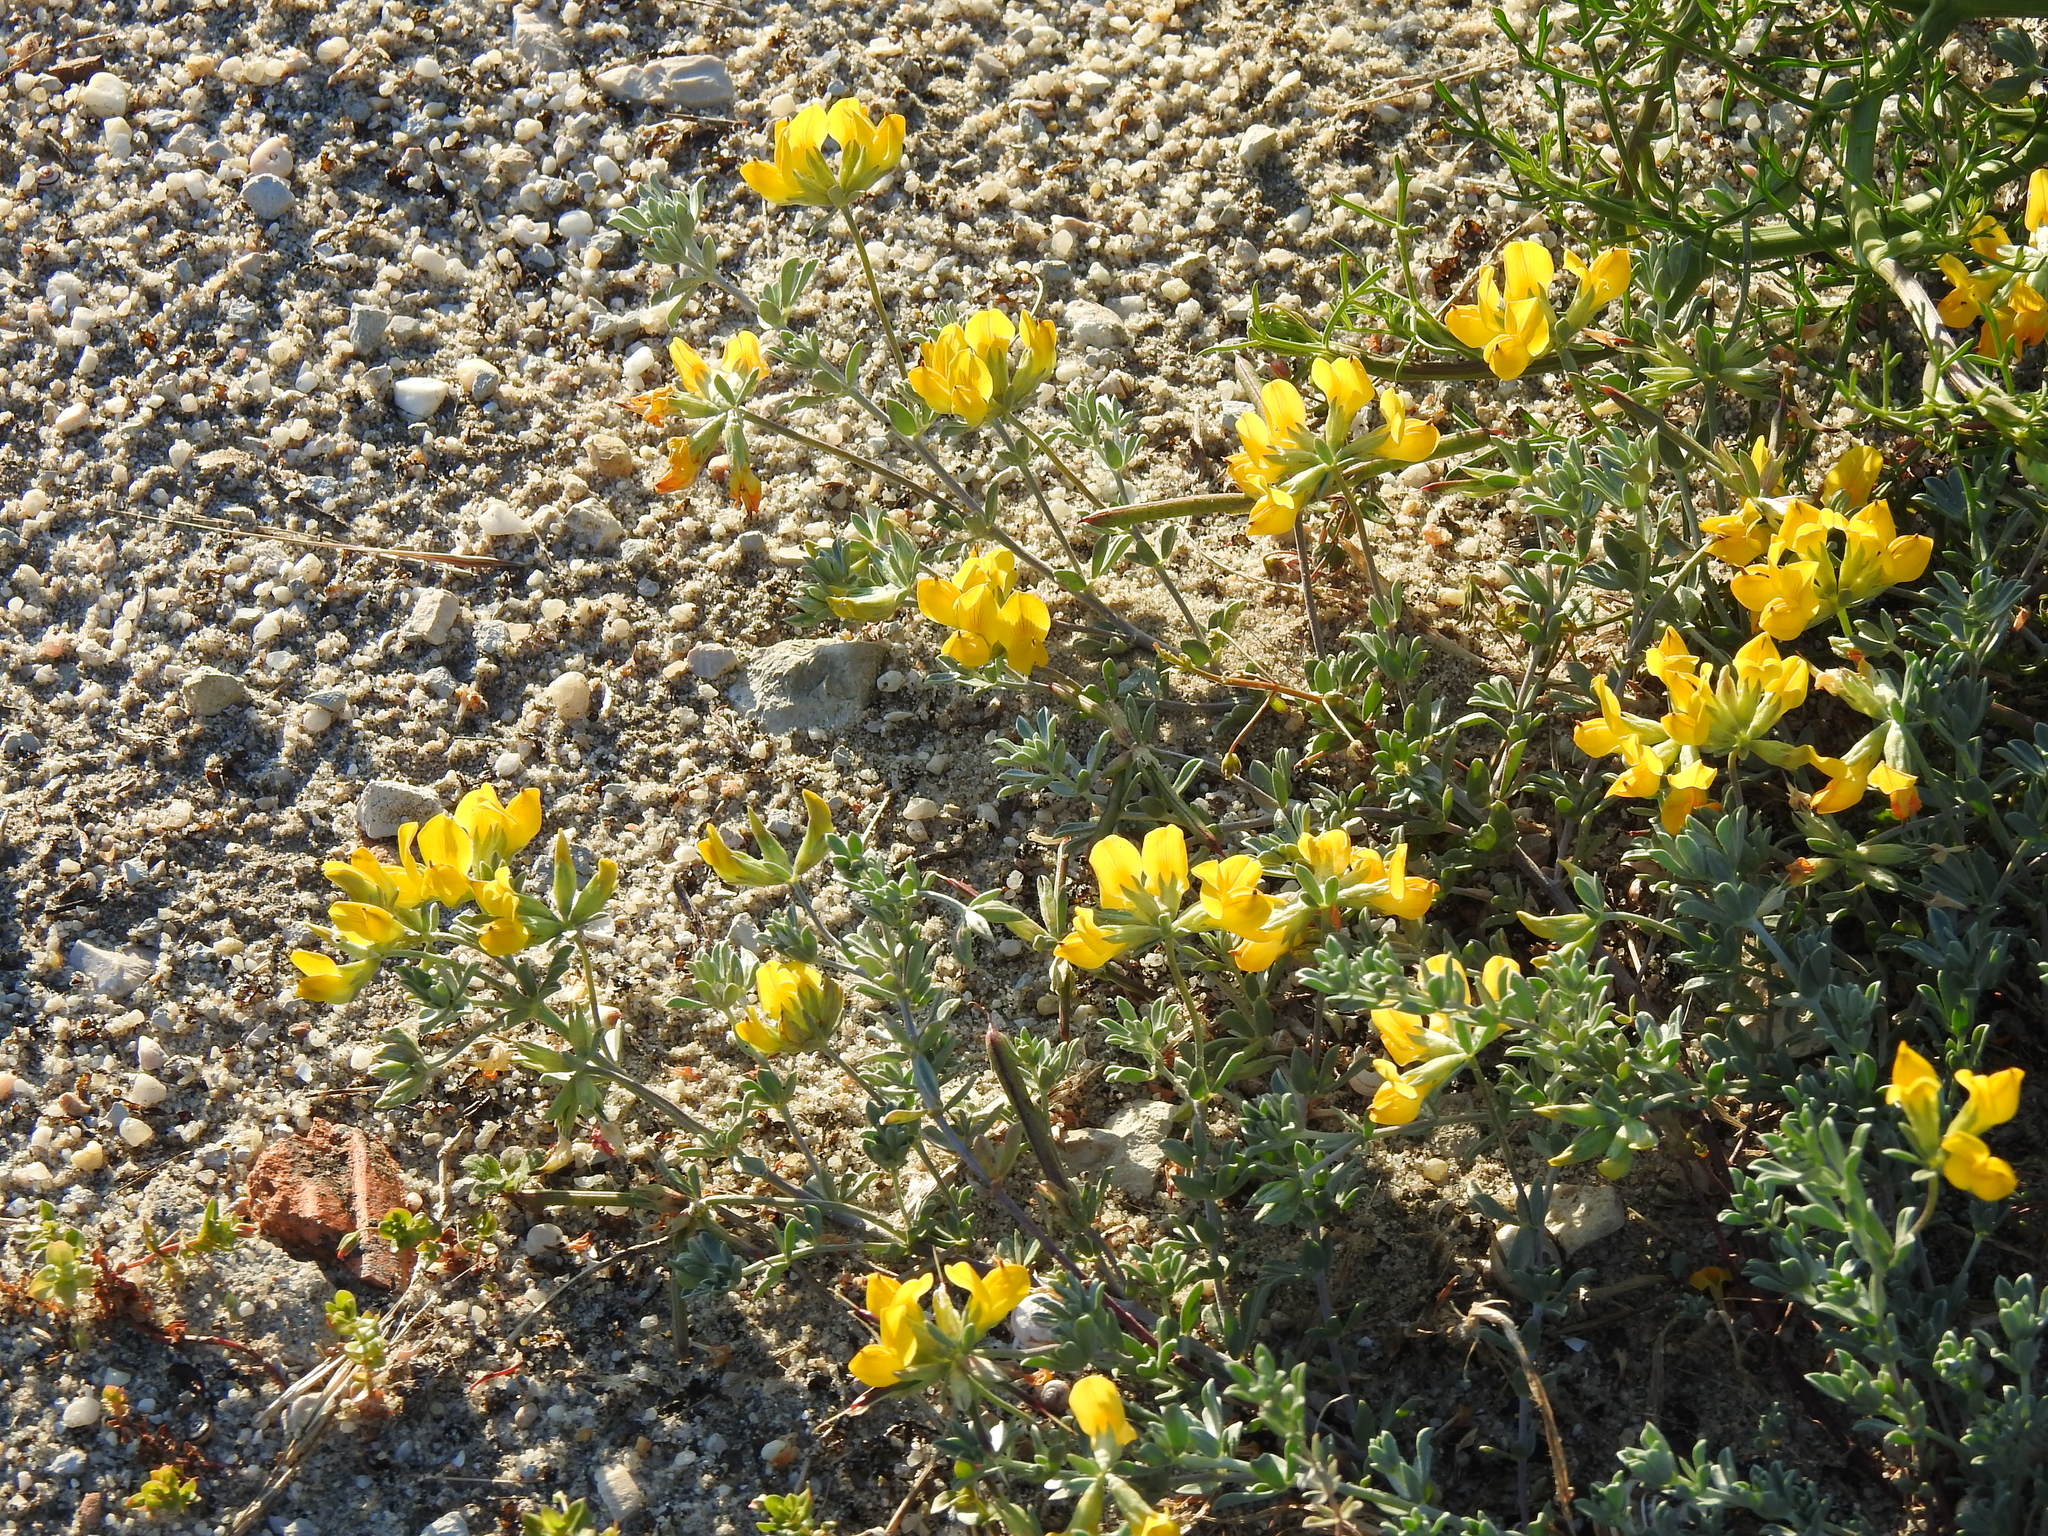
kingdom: Plantae
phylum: Tracheophyta
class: Magnoliopsida
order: Fabales
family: Fabaceae
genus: Lotus
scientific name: Lotus creticus
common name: Cretan bird's-foot trefoil
